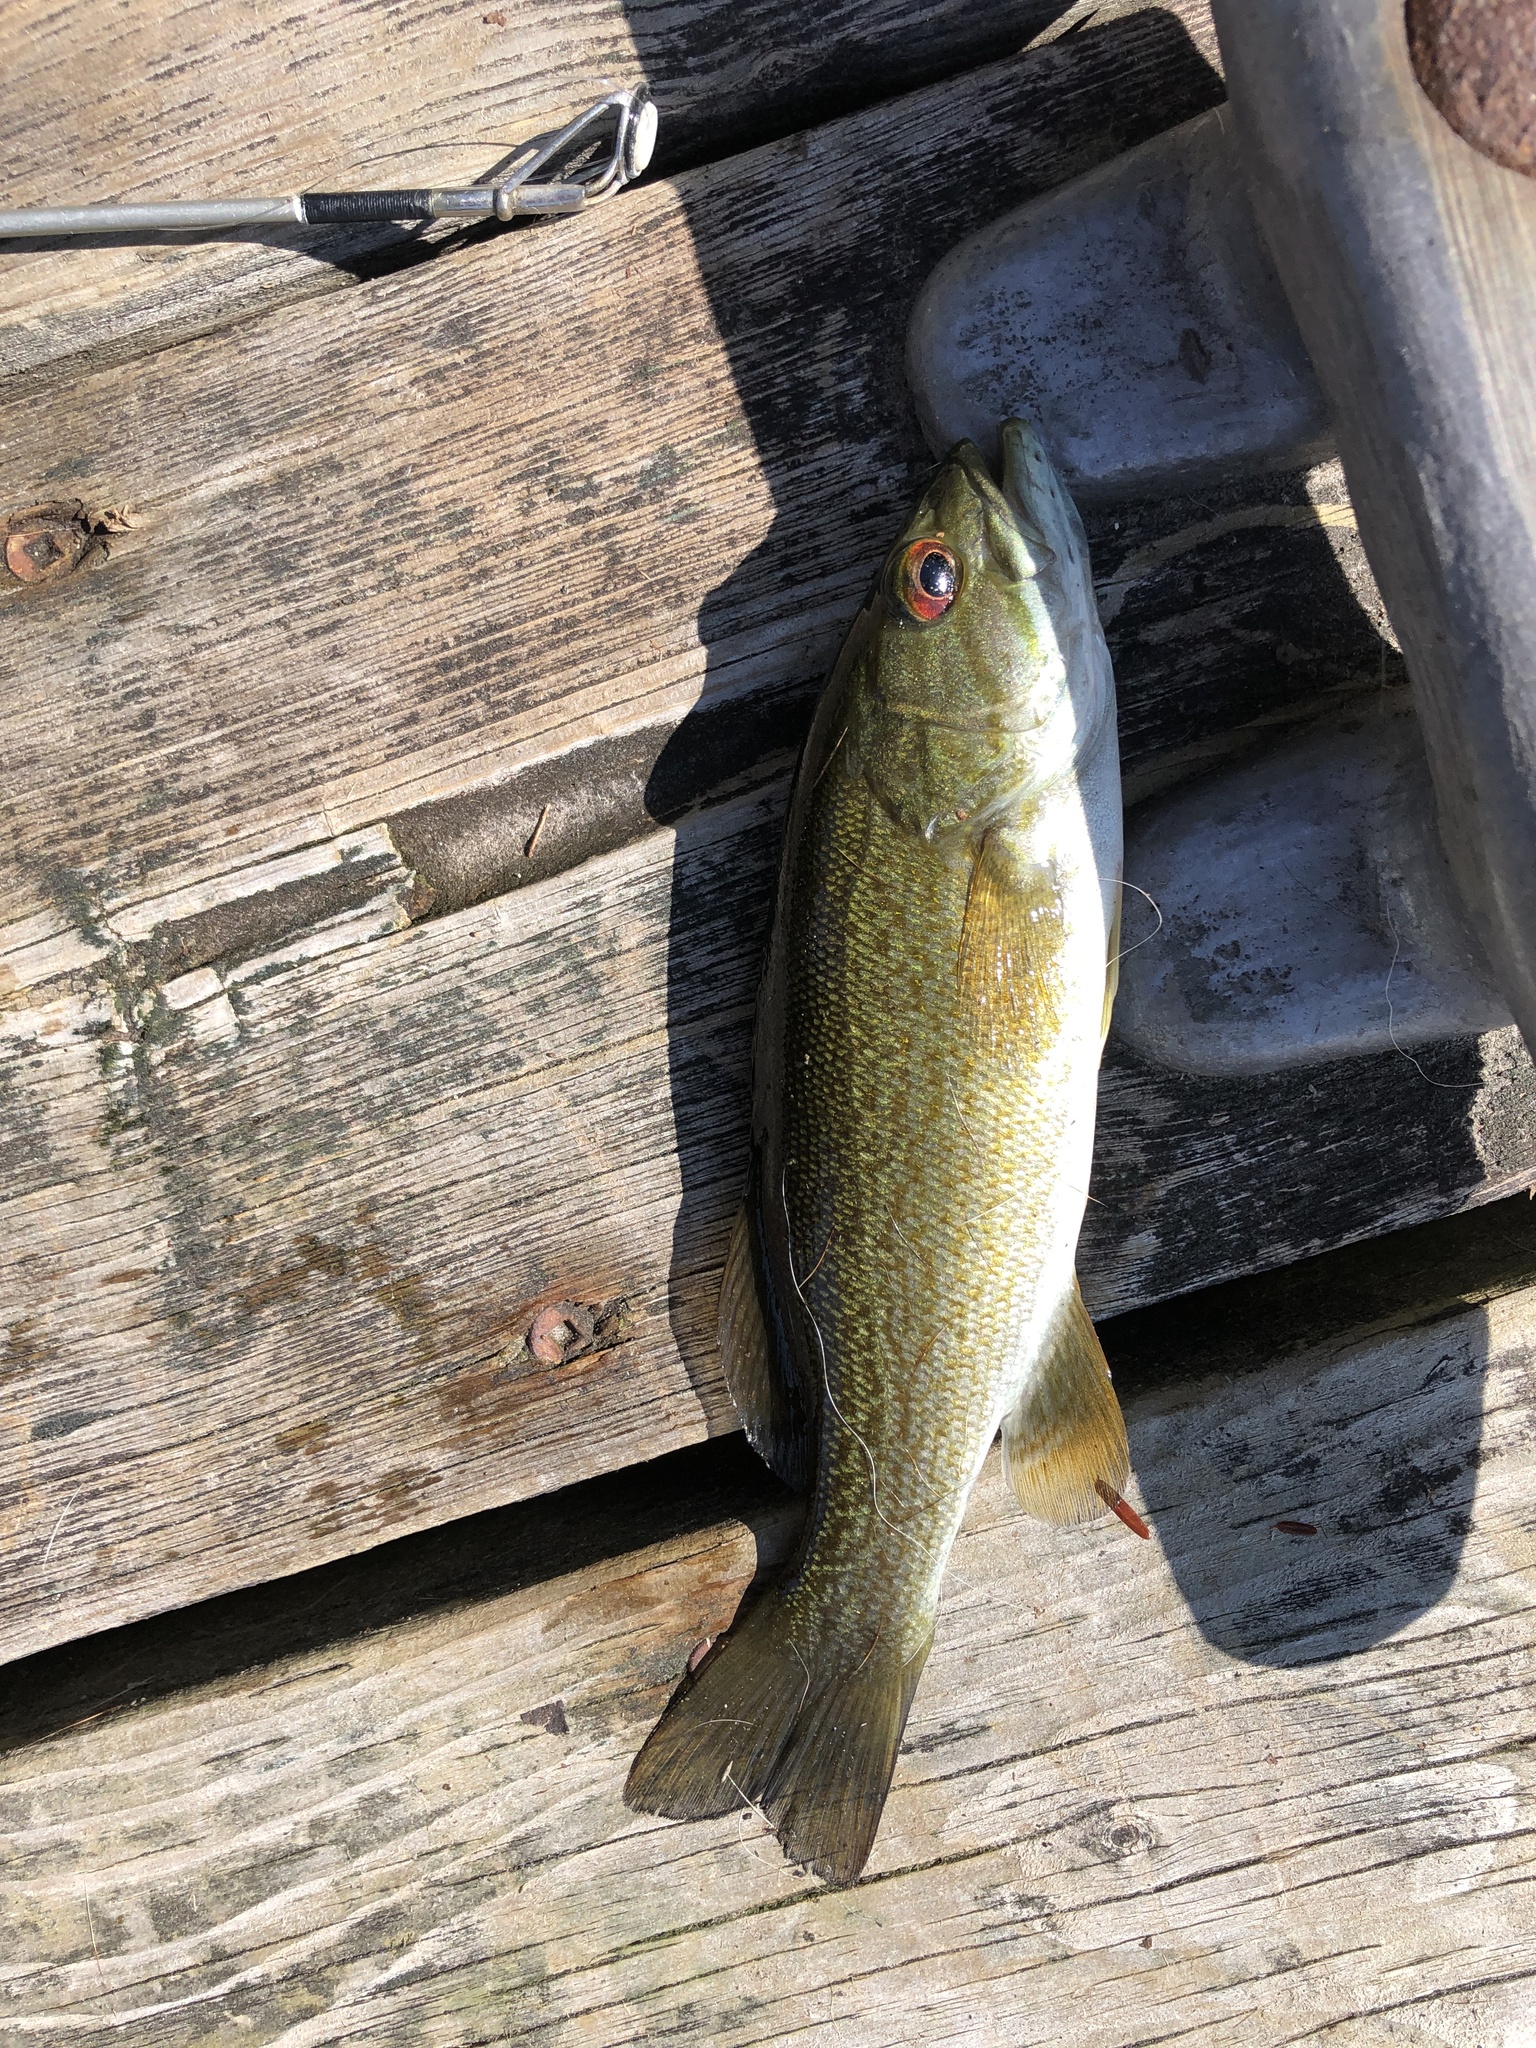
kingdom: Animalia
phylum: Chordata
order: Perciformes
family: Centrarchidae
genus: Micropterus
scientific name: Micropterus dolomieu
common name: Smallmouth bass
